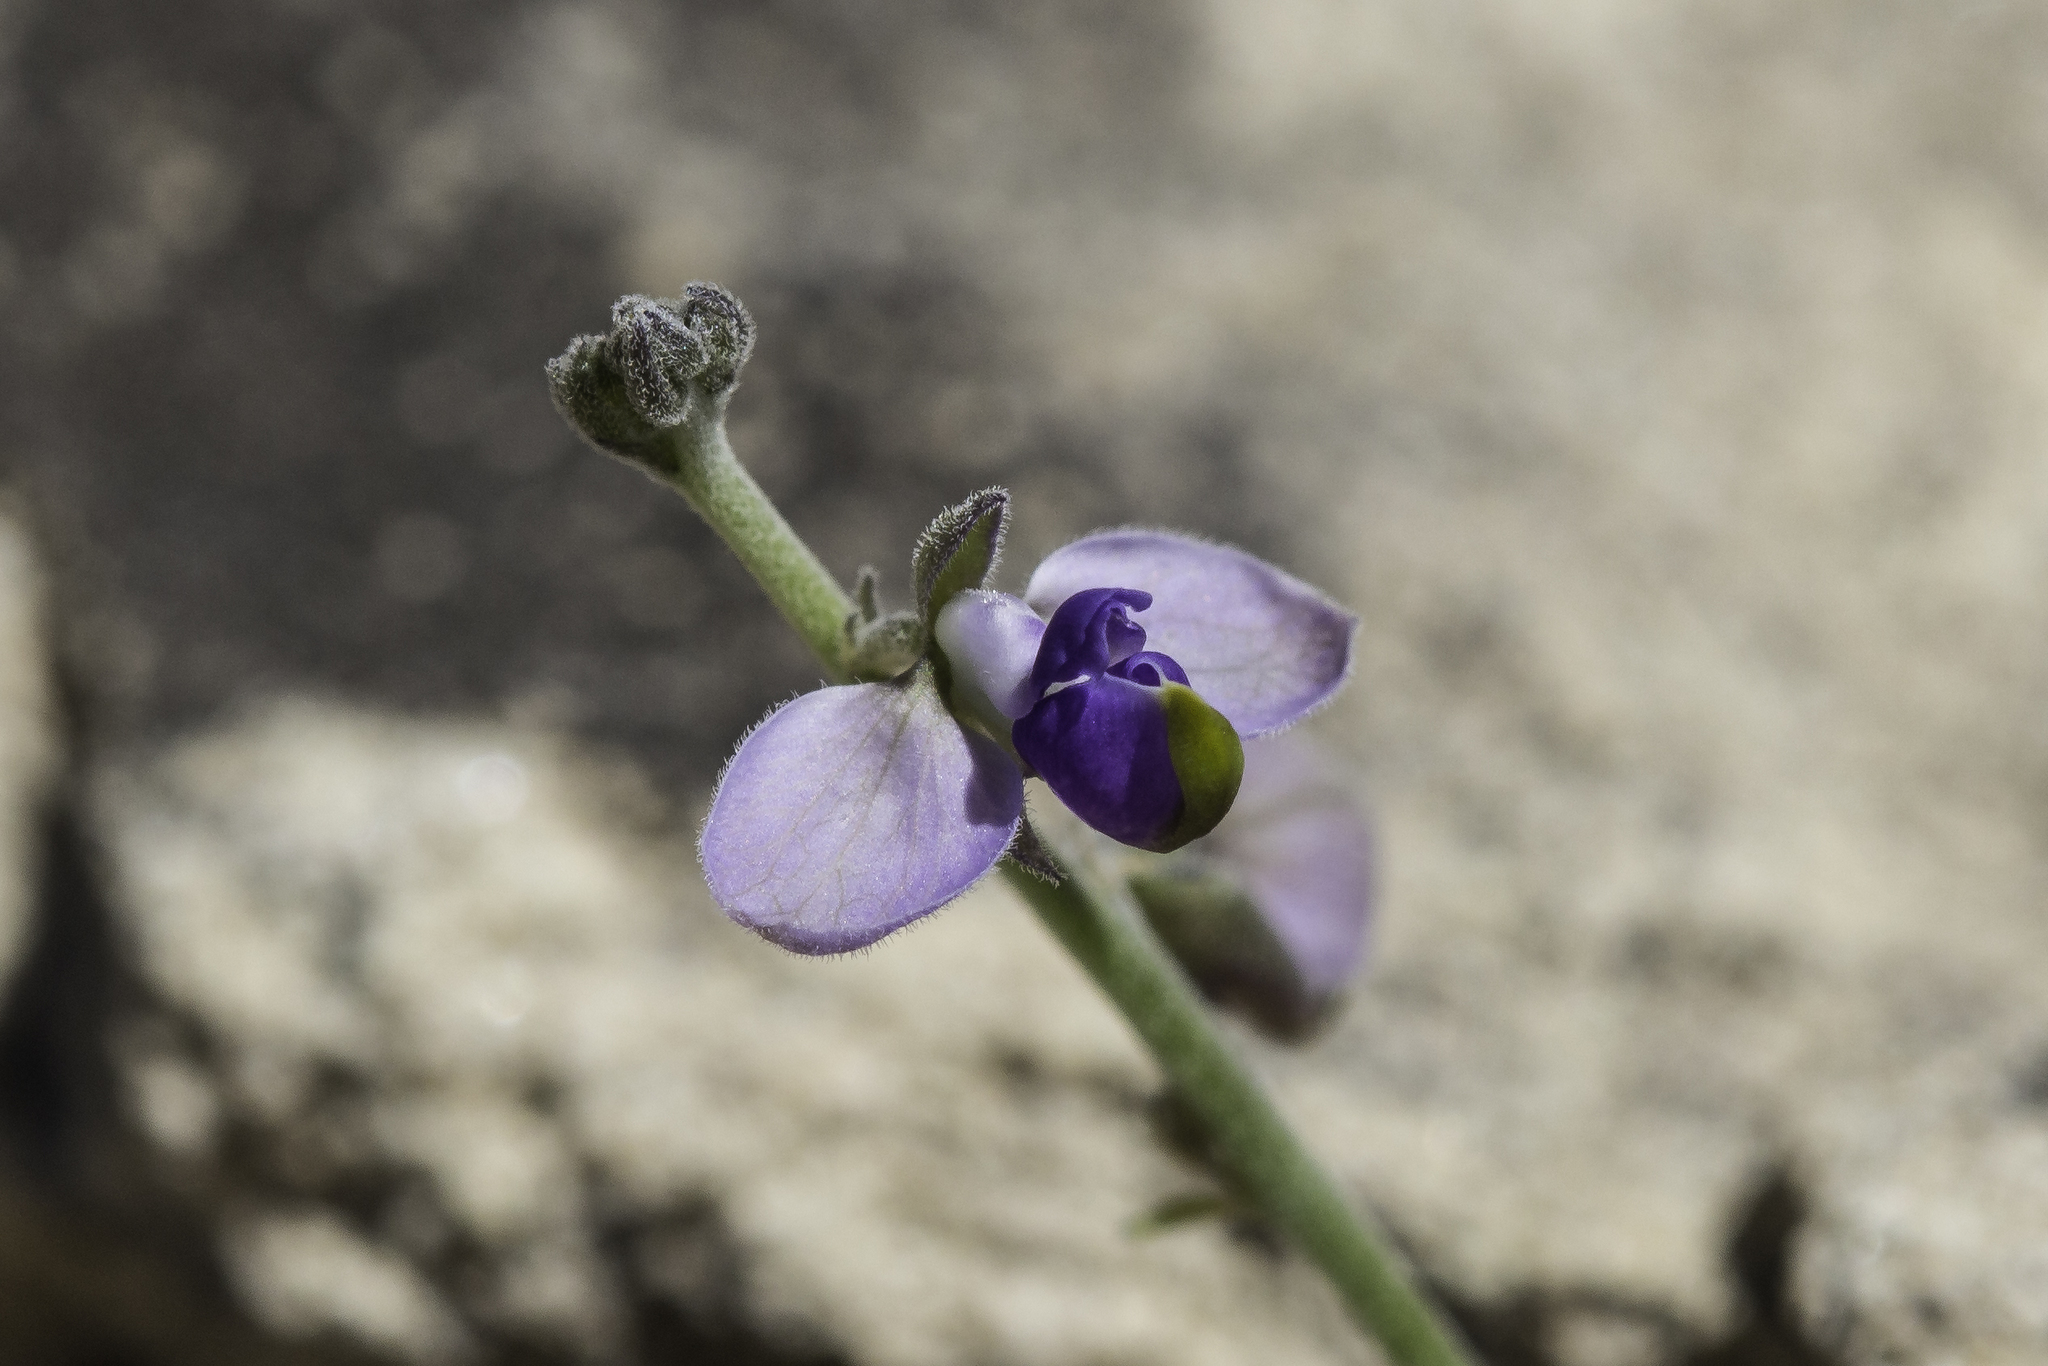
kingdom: Plantae
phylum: Tracheophyta
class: Magnoliopsida
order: Fabales
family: Polygalaceae
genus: Hebecarpa
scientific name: Hebecarpa barbeyana
